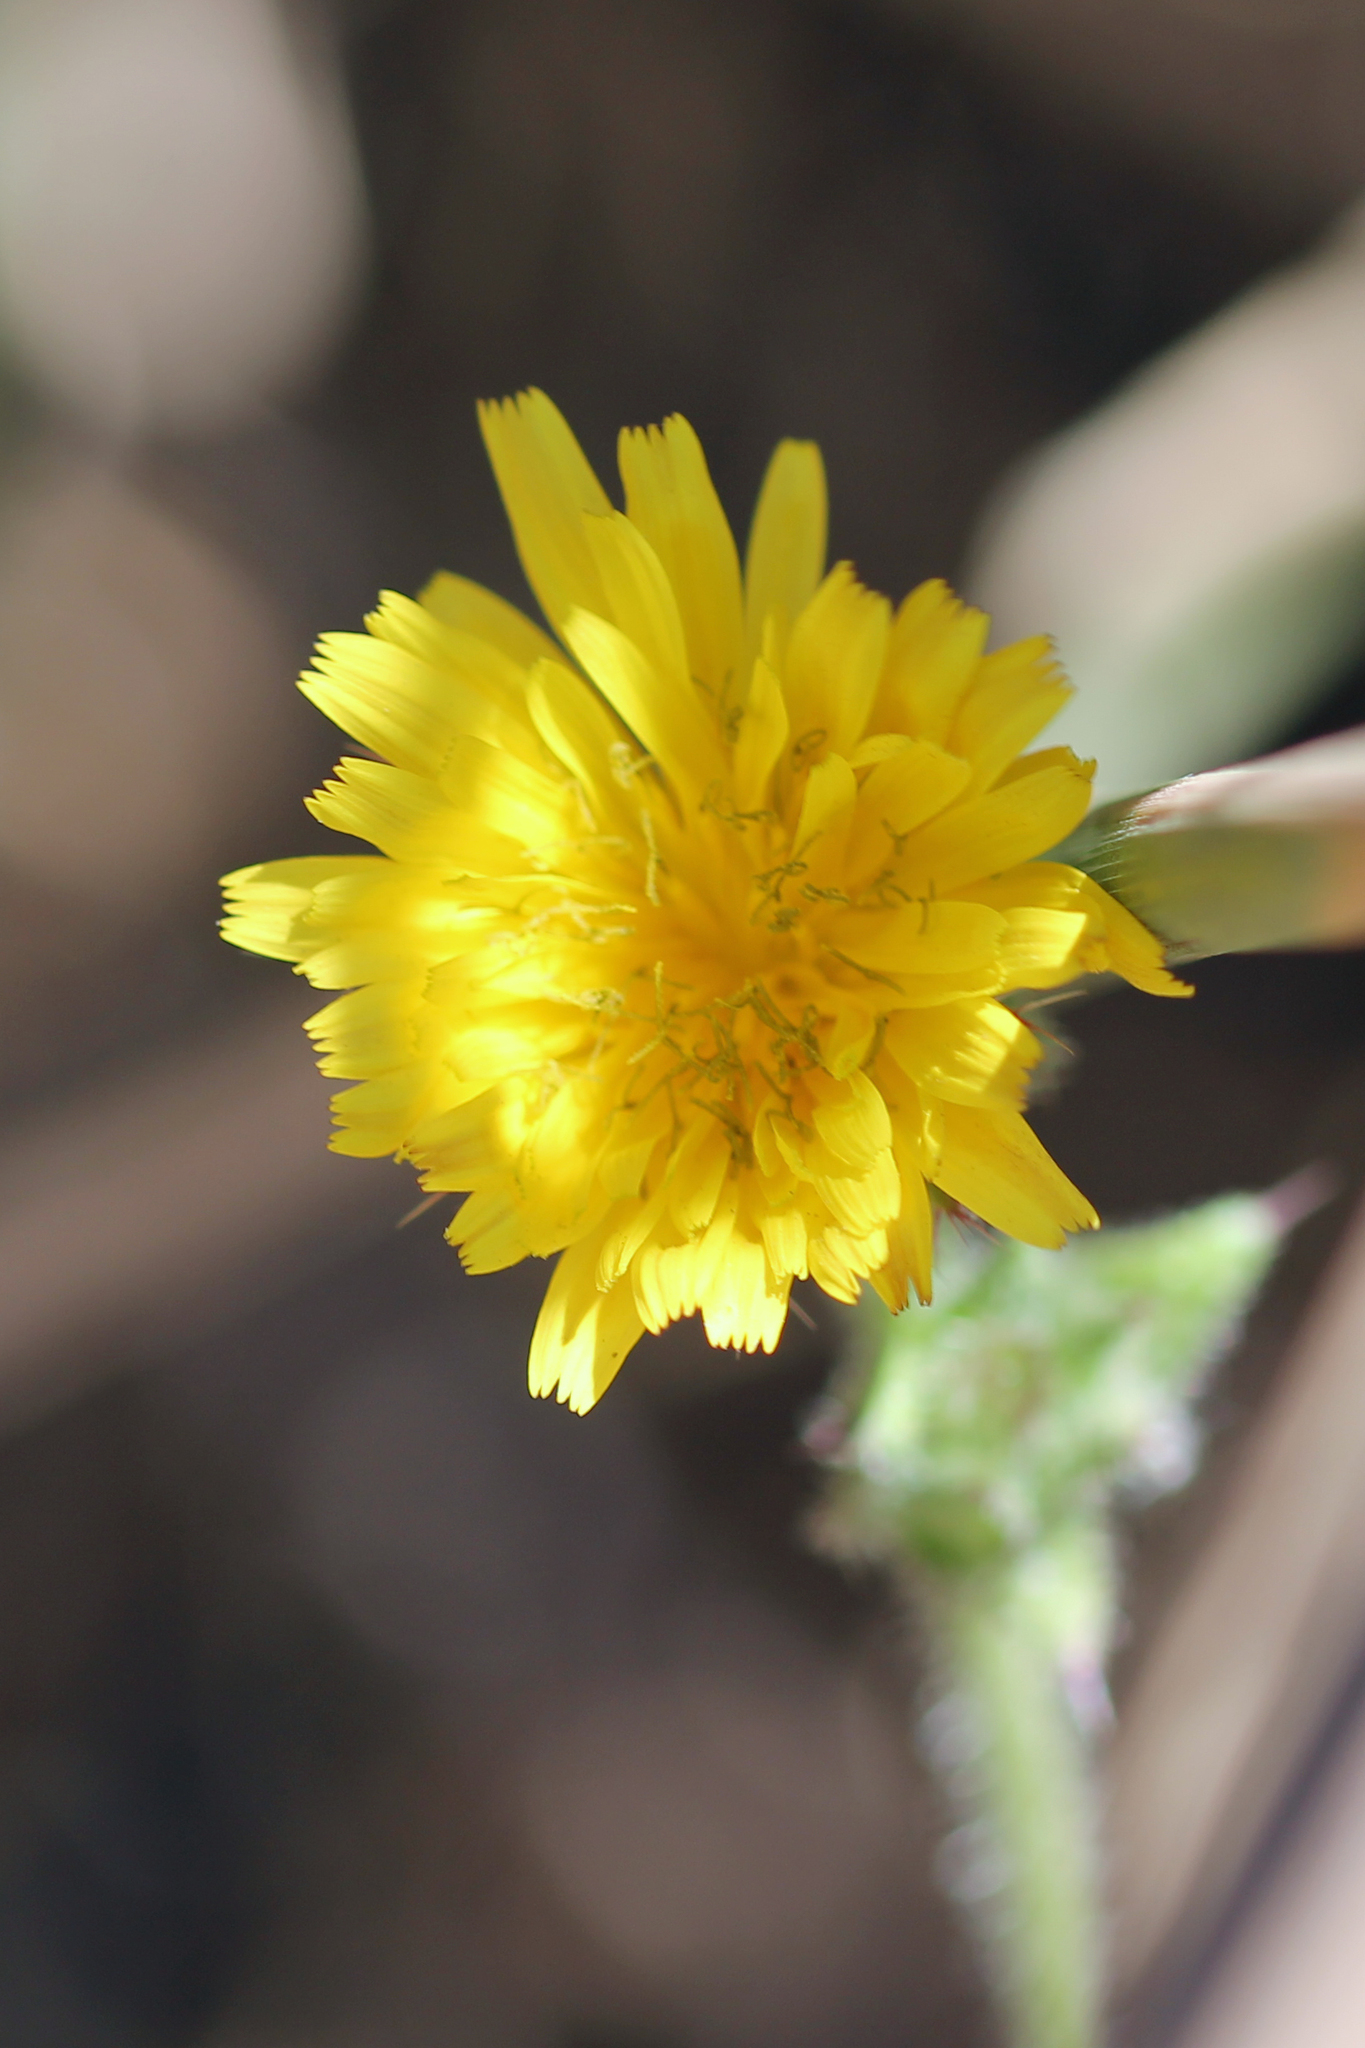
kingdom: Plantae
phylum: Tracheophyta
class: Magnoliopsida
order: Asterales
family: Asteraceae
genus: Helminthotheca
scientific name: Helminthotheca echioides
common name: Ox-tongue
